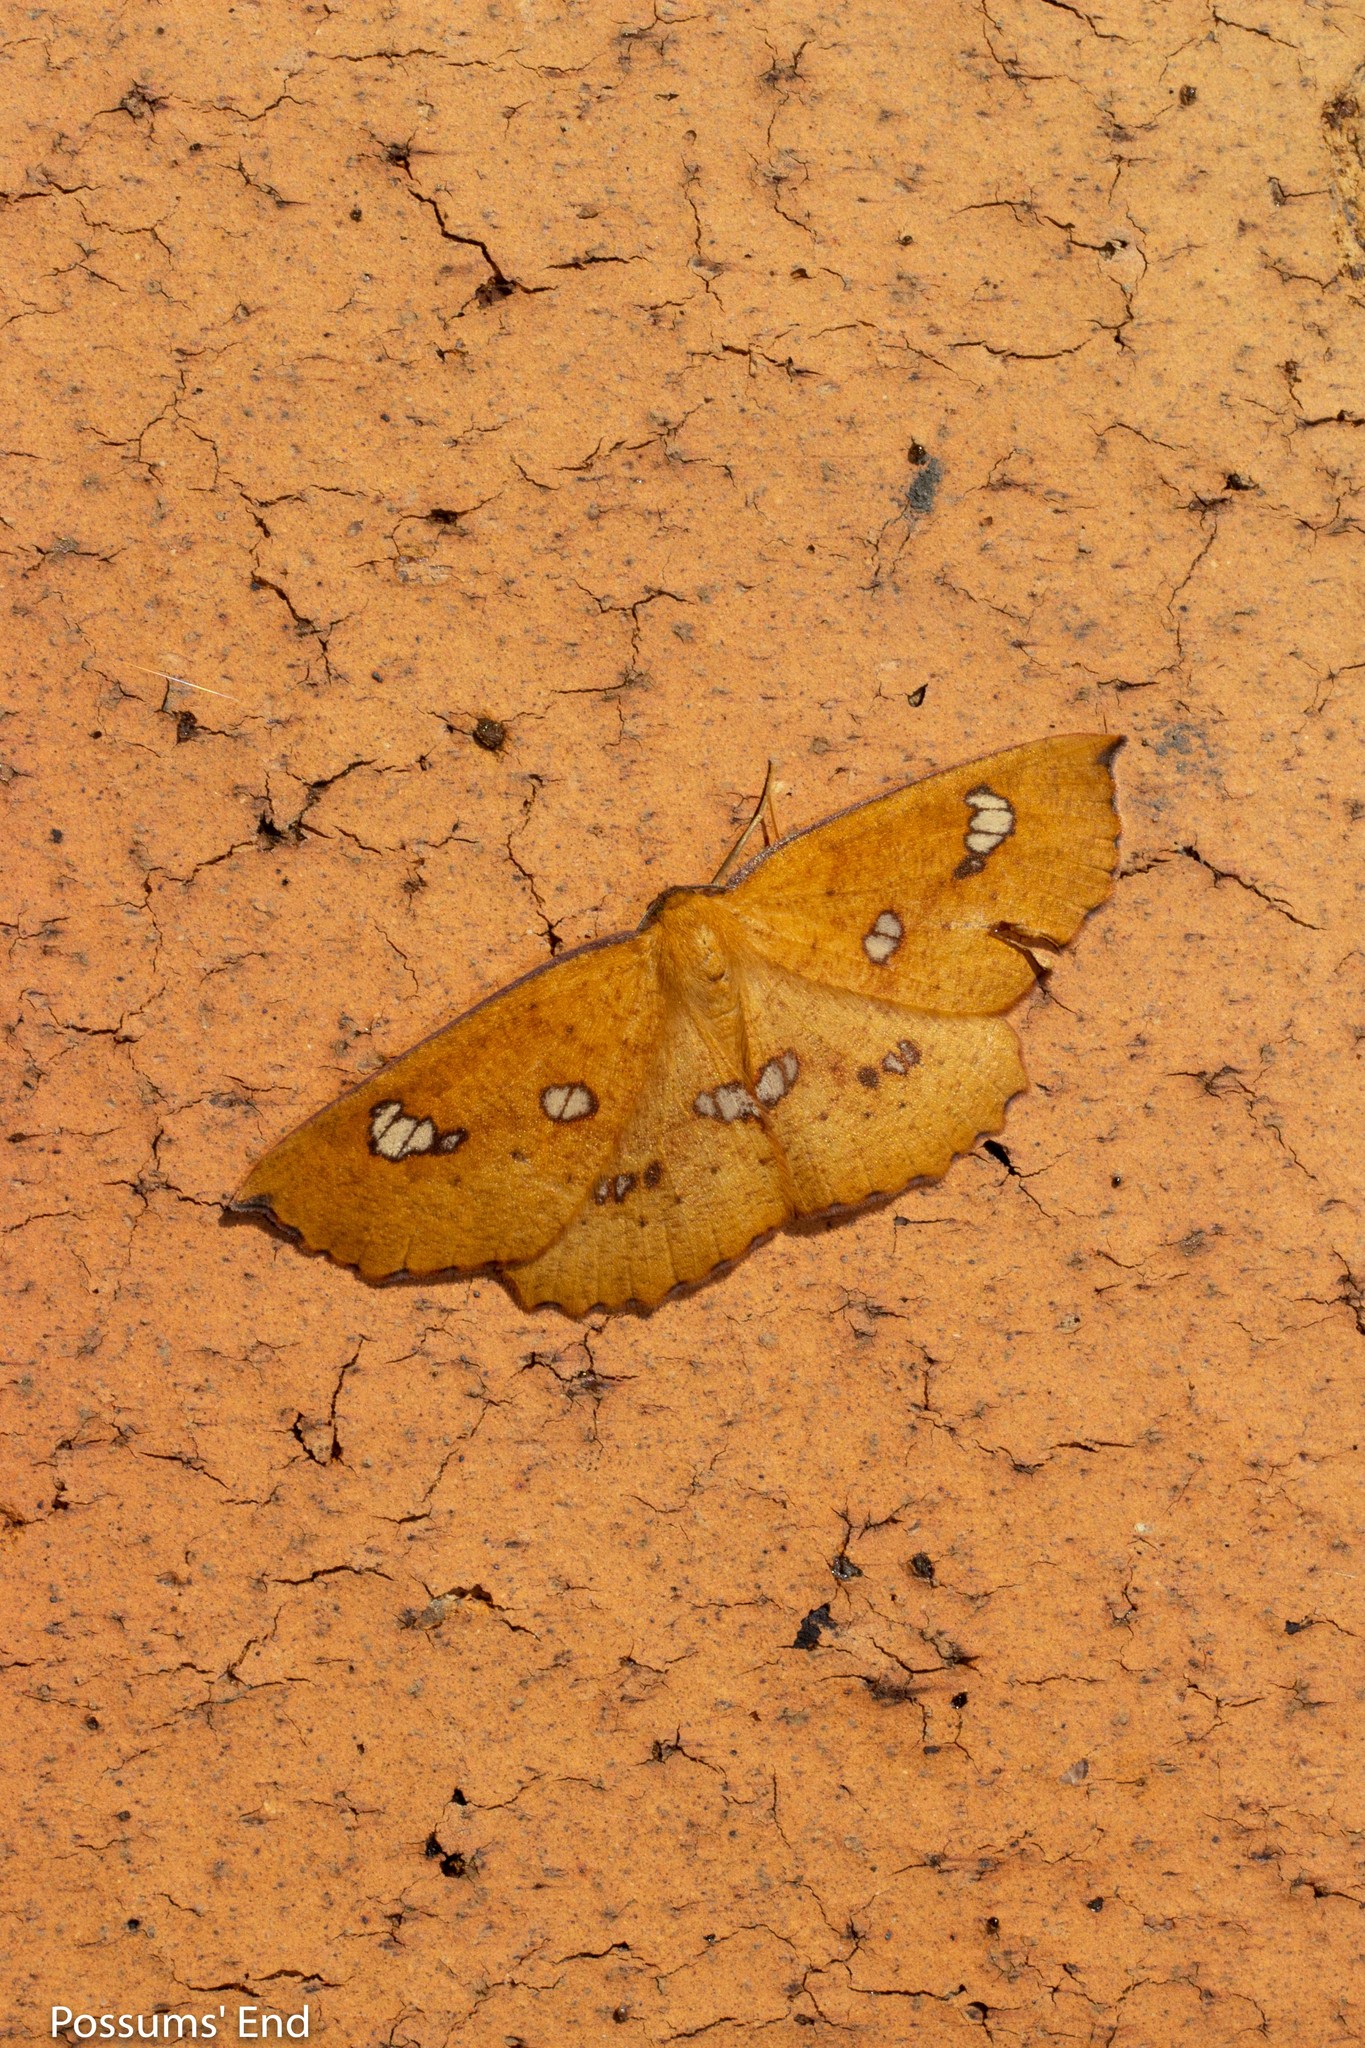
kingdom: Animalia
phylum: Arthropoda
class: Insecta
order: Lepidoptera
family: Geometridae
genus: Xyridacma
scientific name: Xyridacma alectoraria
